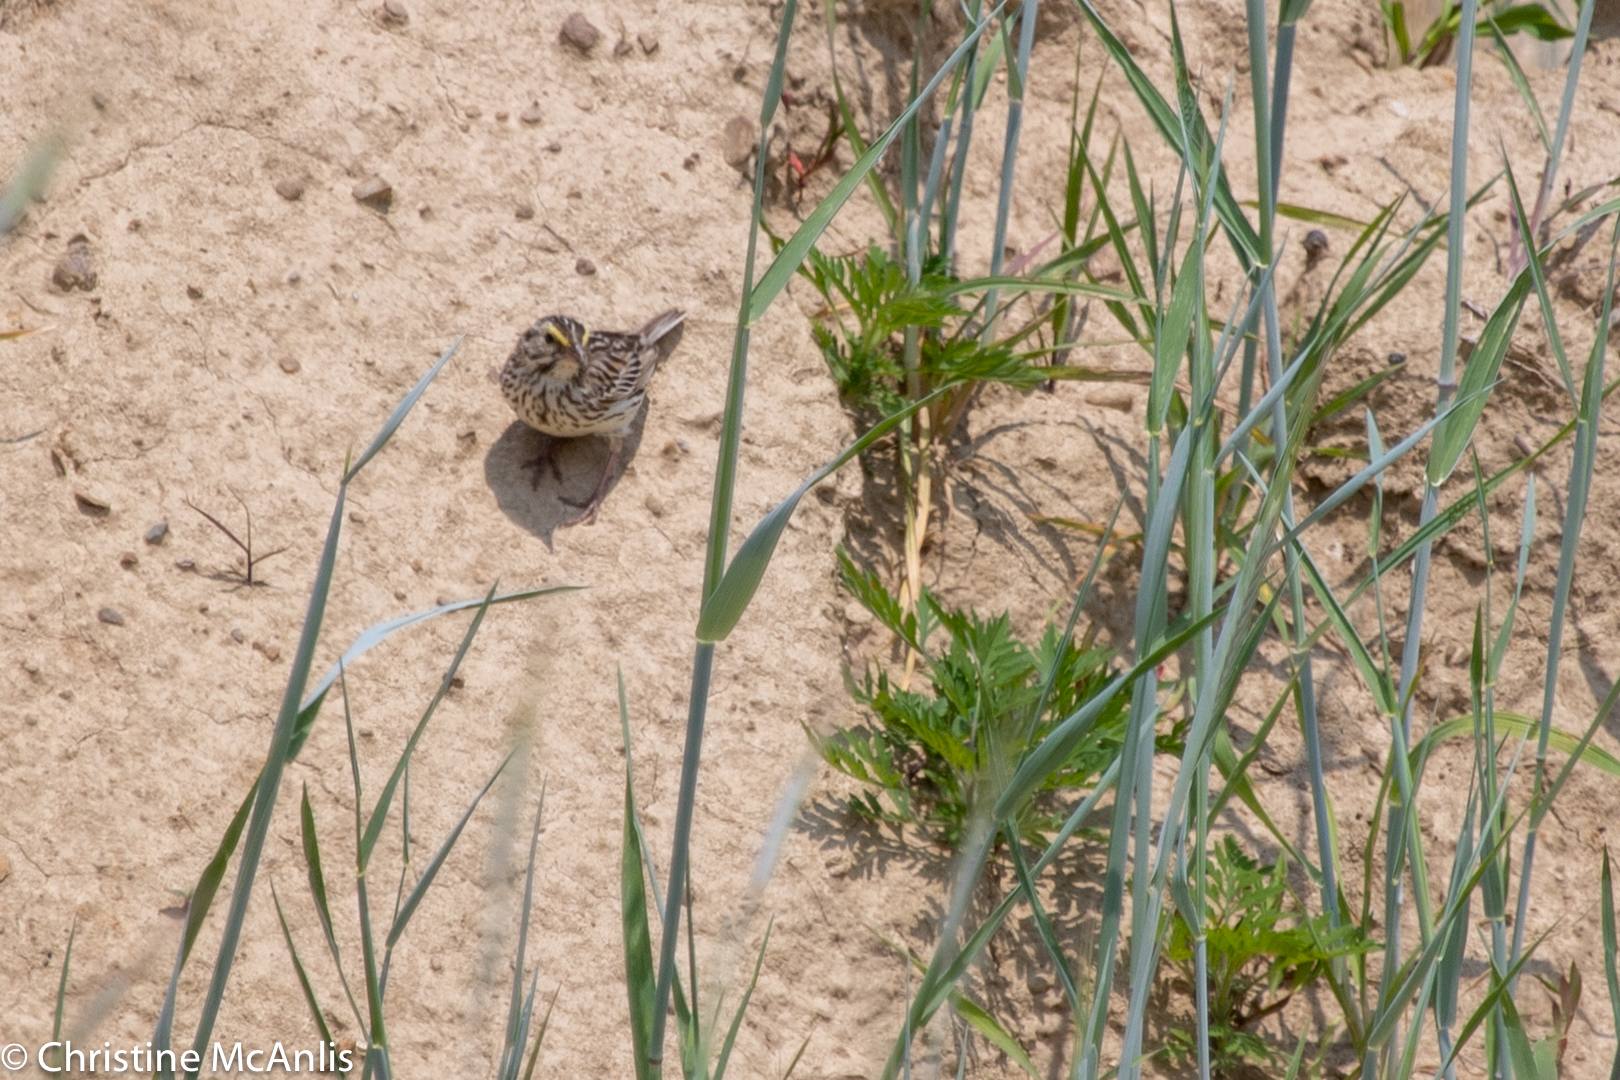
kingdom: Animalia
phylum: Chordata
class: Aves
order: Passeriformes
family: Passerellidae
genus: Passerculus
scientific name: Passerculus sandwichensis
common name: Savannah sparrow
